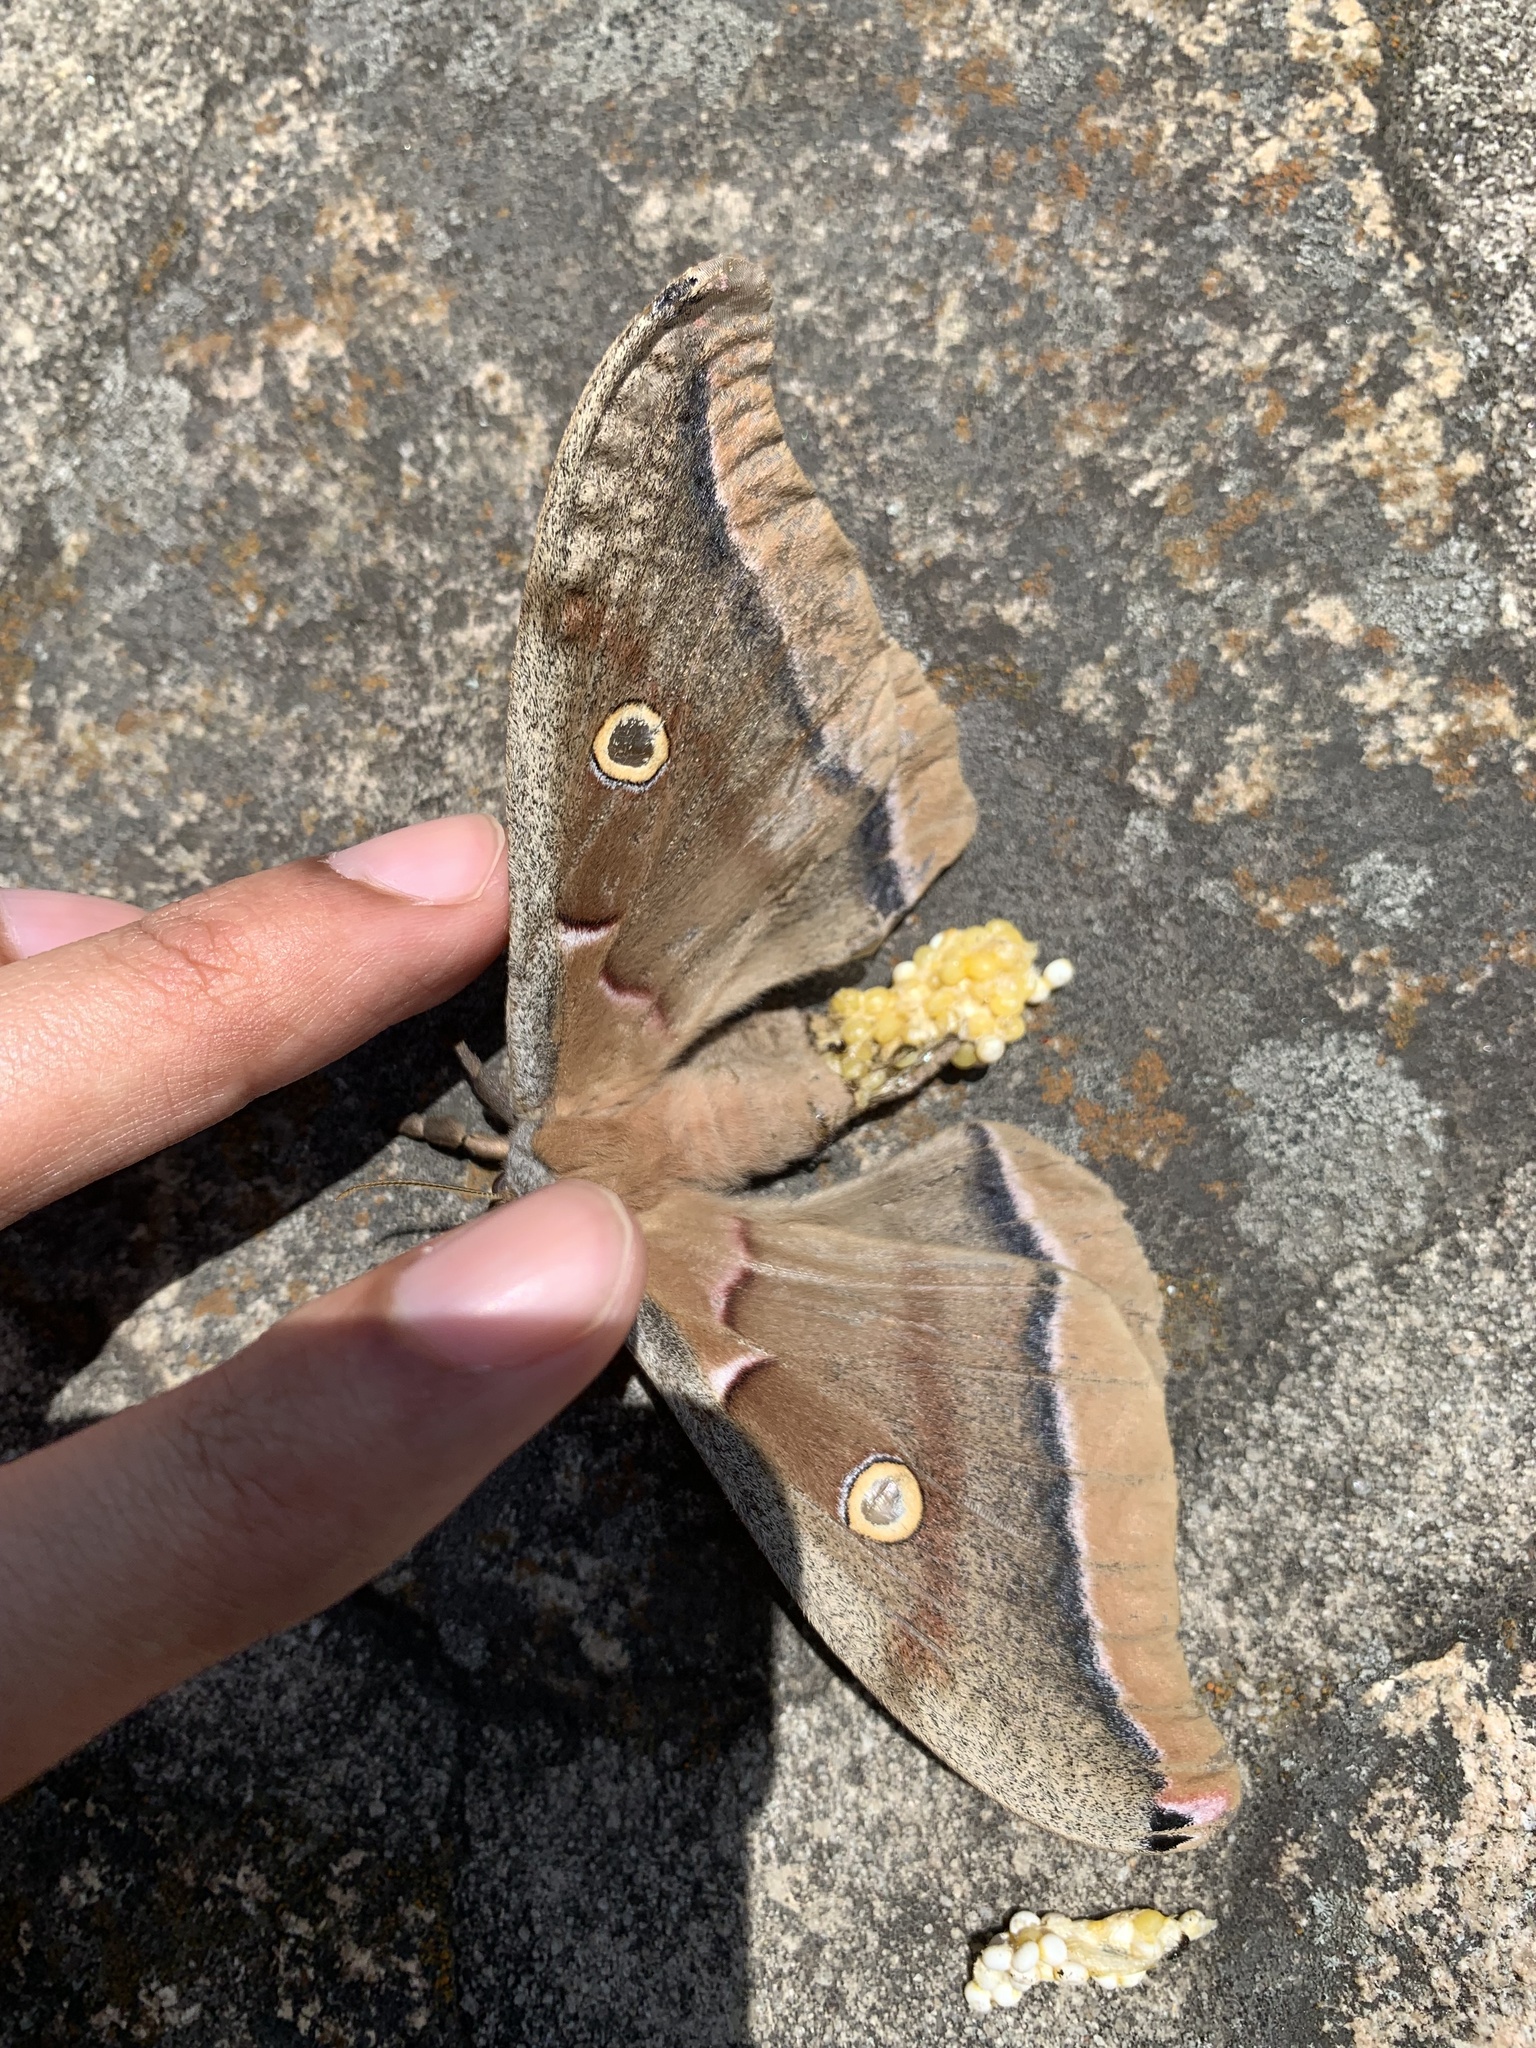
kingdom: Animalia
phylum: Arthropoda
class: Insecta
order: Lepidoptera
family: Saturniidae
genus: Antheraea
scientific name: Antheraea polyphemus
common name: Polyphemus moth
